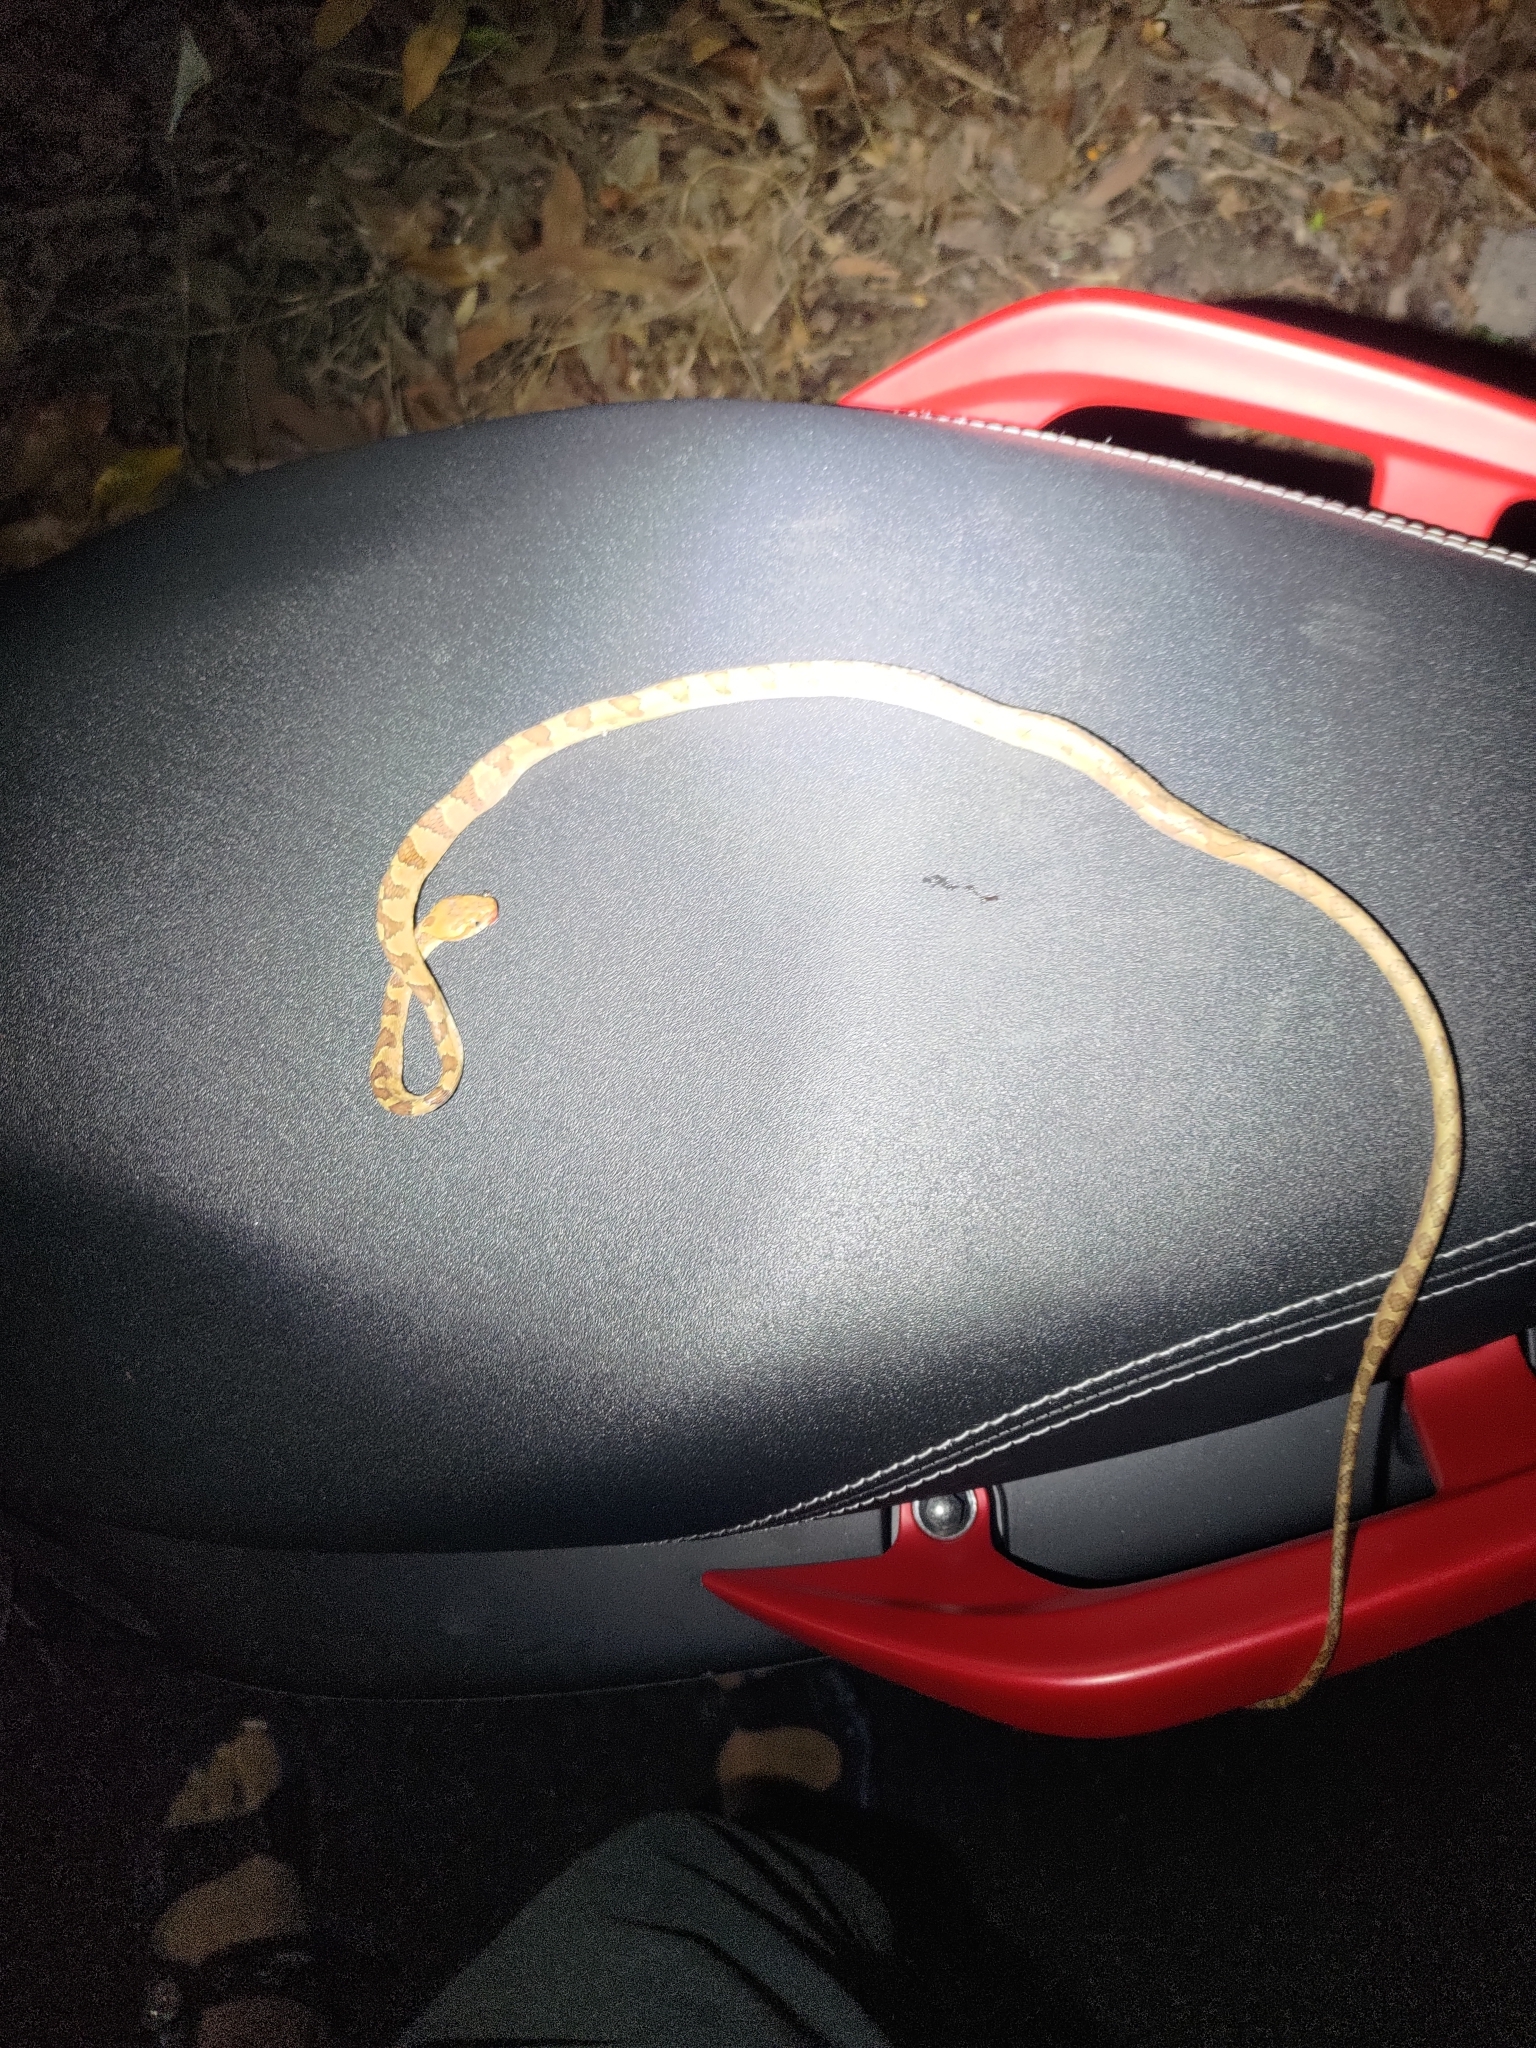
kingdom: Animalia
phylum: Chordata
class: Squamata
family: Colubridae
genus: Boiga
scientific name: Boiga kraepelini
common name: Kelung cat snake
